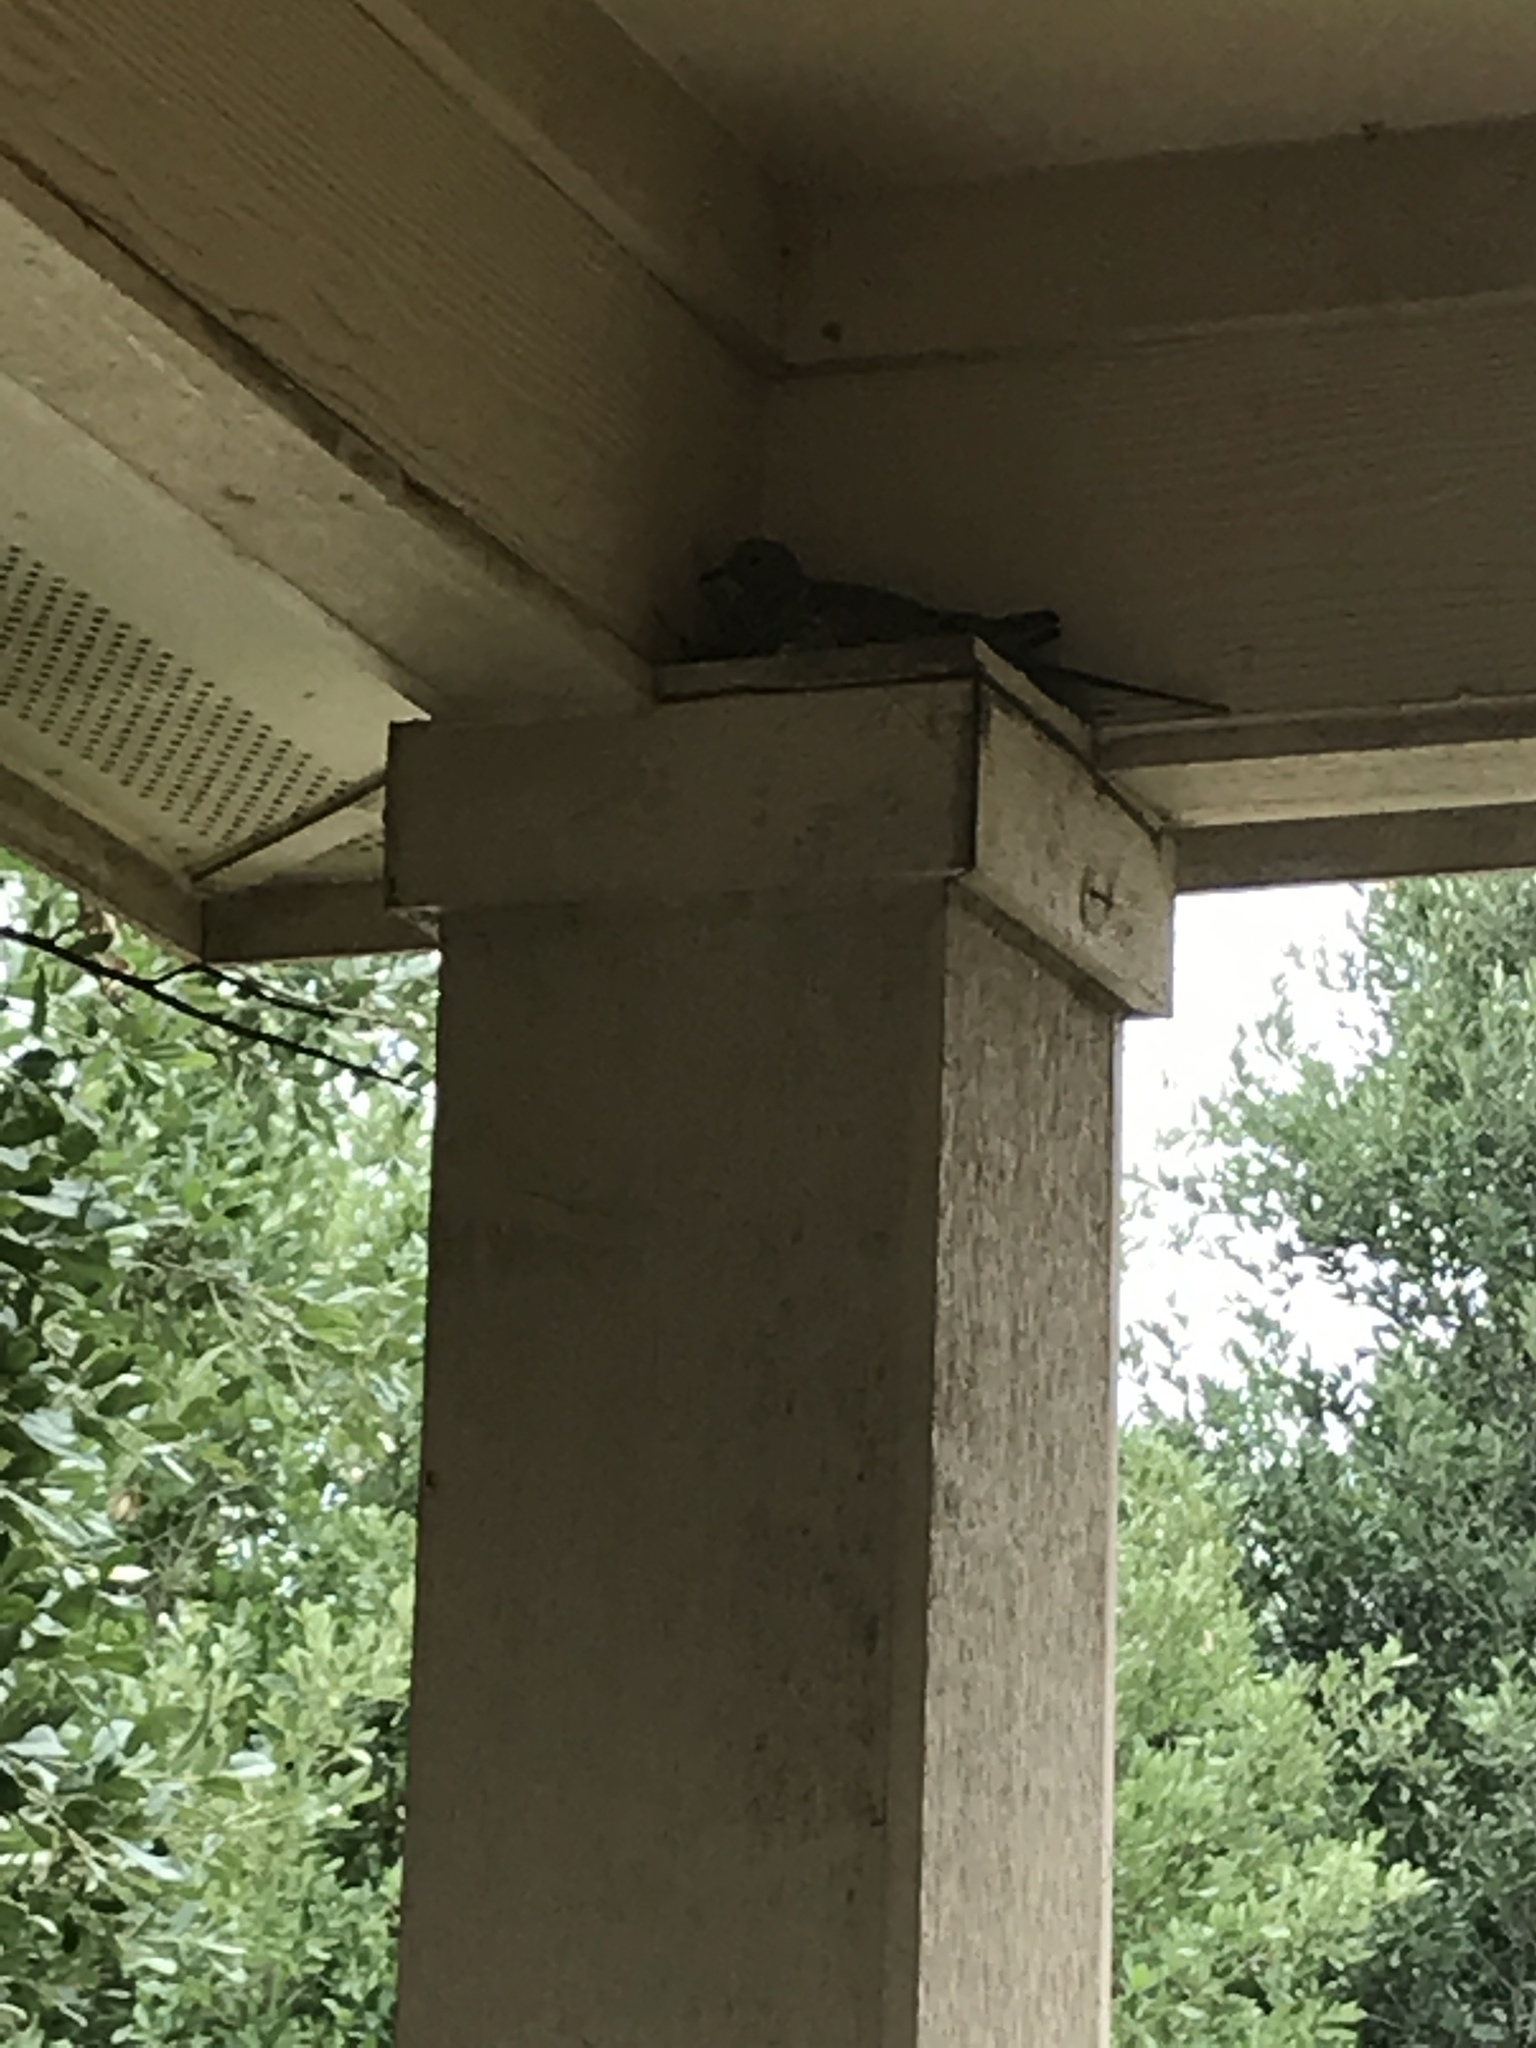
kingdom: Animalia
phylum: Chordata
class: Aves
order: Columbiformes
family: Columbidae
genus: Zenaida
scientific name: Zenaida macroura
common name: Mourning dove
